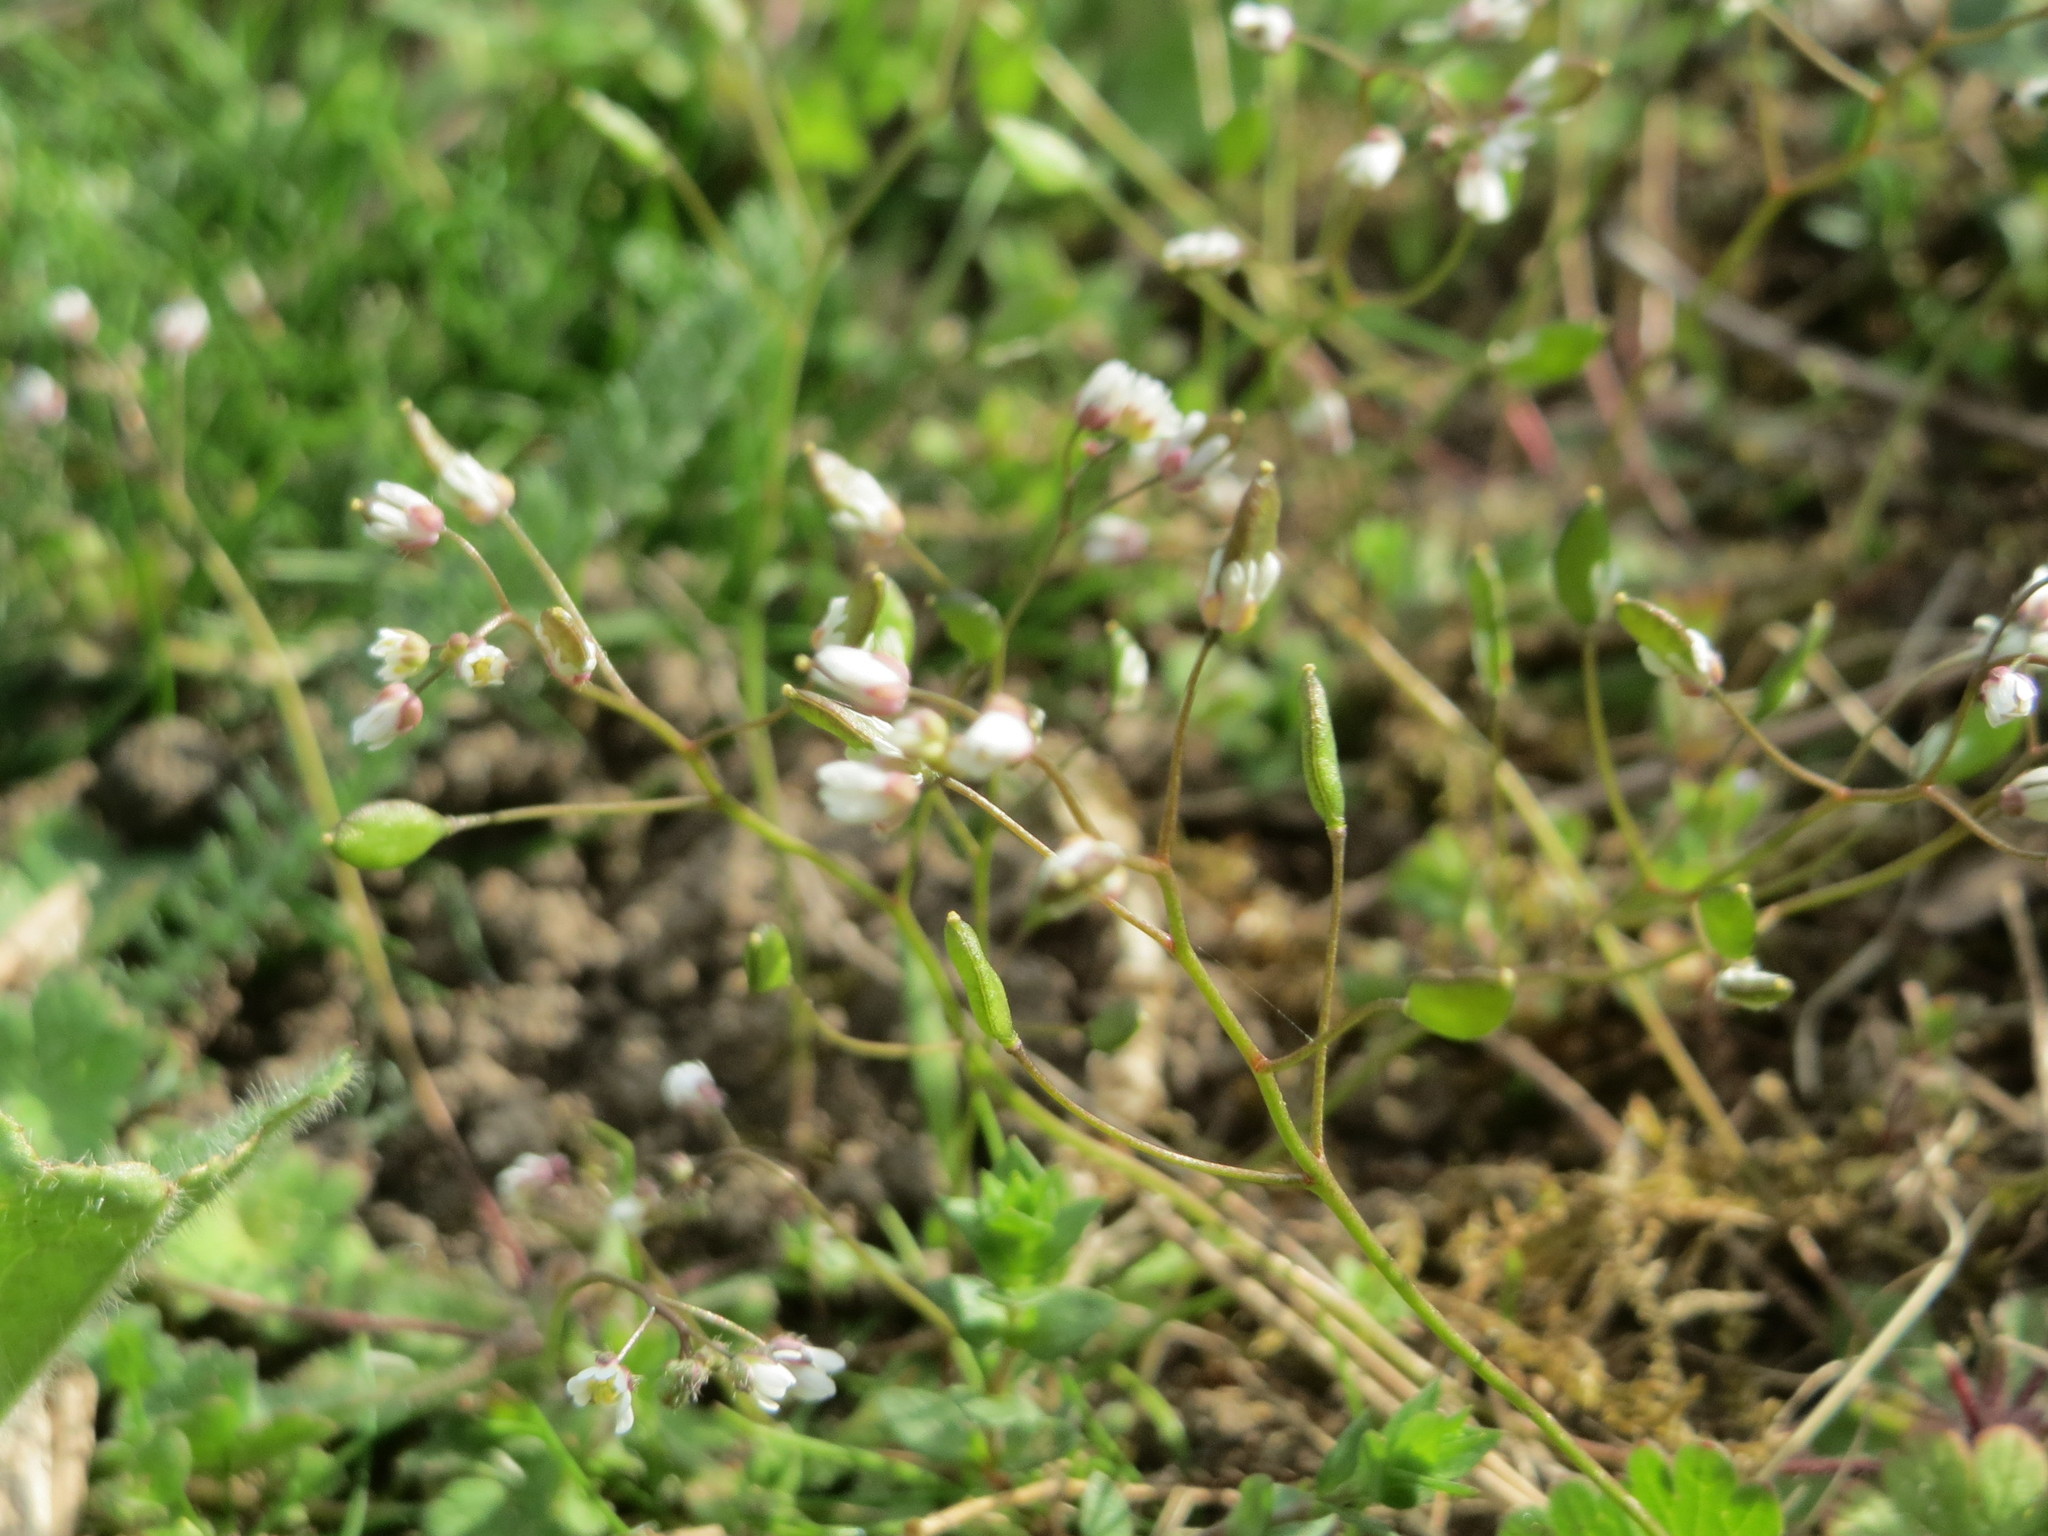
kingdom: Plantae
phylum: Tracheophyta
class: Magnoliopsida
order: Brassicales
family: Brassicaceae
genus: Draba
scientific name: Draba verna
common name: Spring draba
